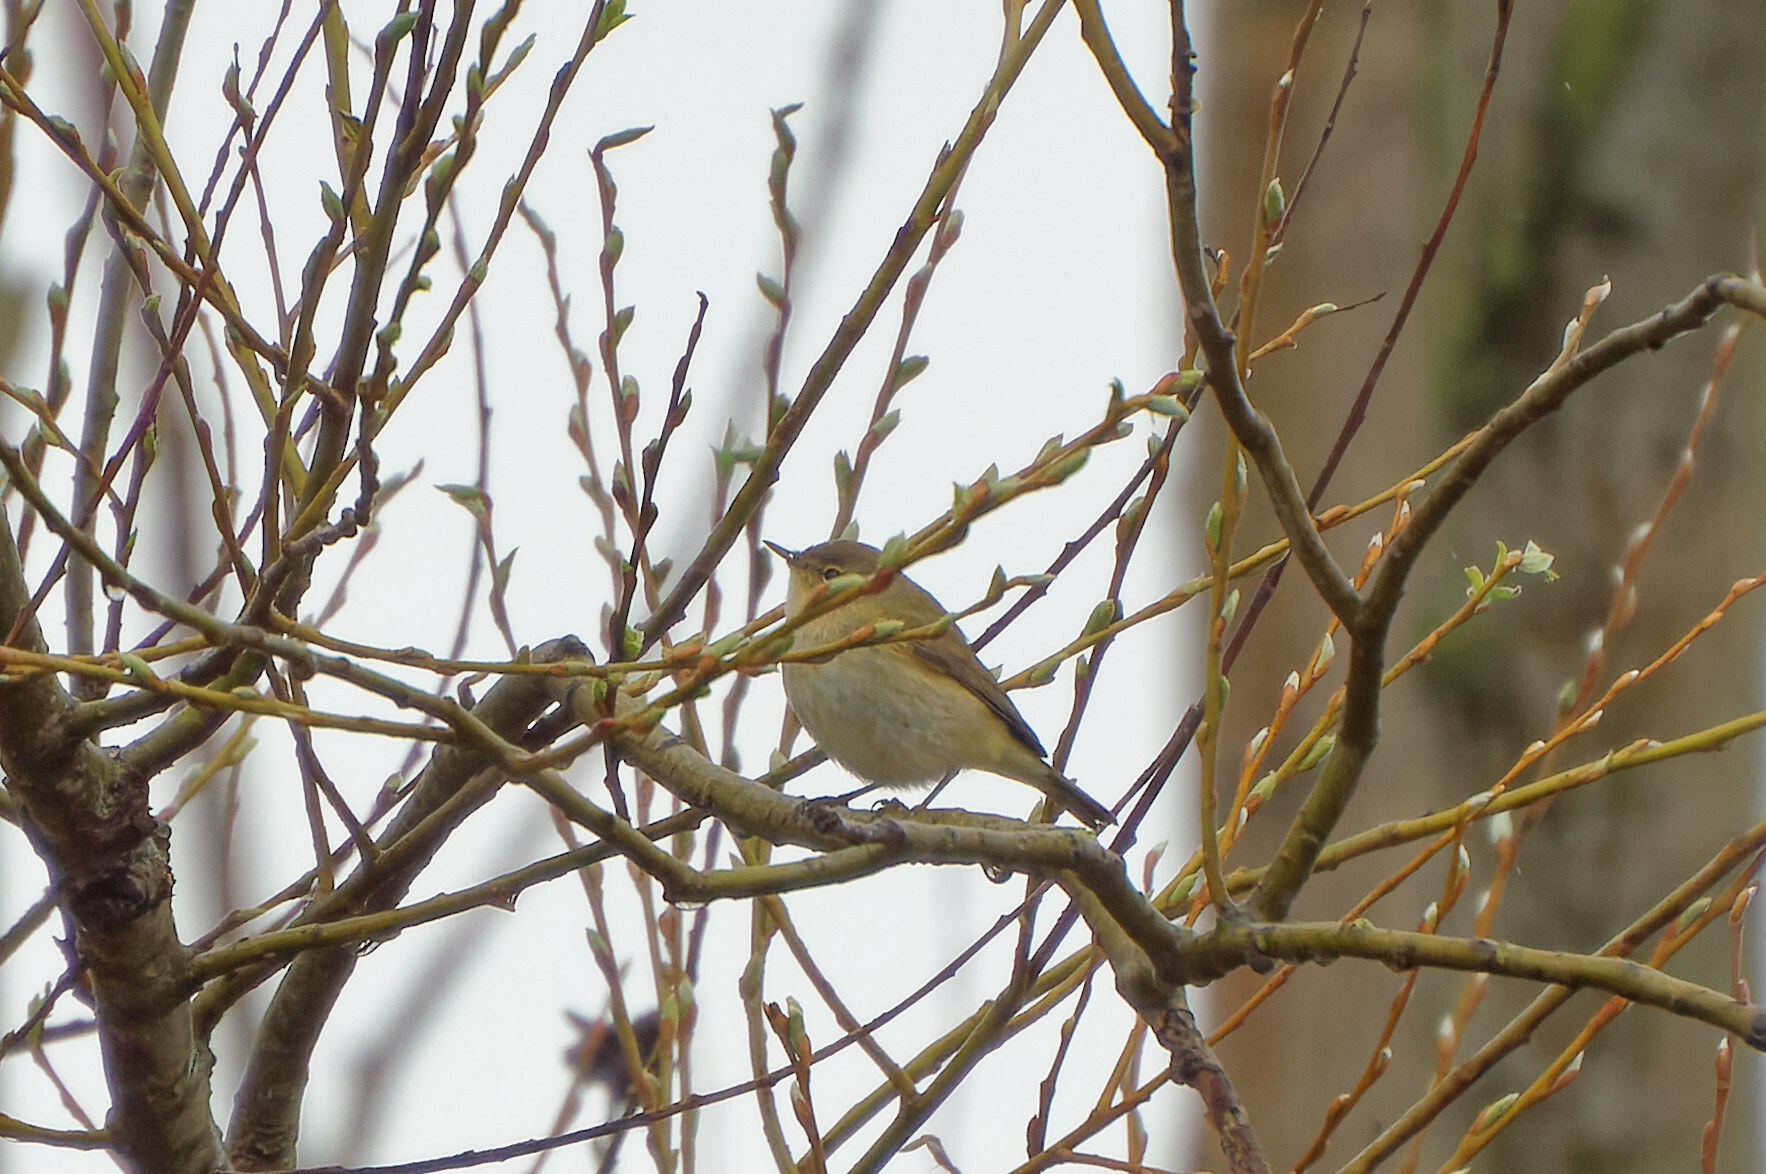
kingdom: Animalia
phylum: Chordata
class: Aves
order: Passeriformes
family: Phylloscopidae
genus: Phylloscopus
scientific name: Phylloscopus collybita
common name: Common chiffchaff
